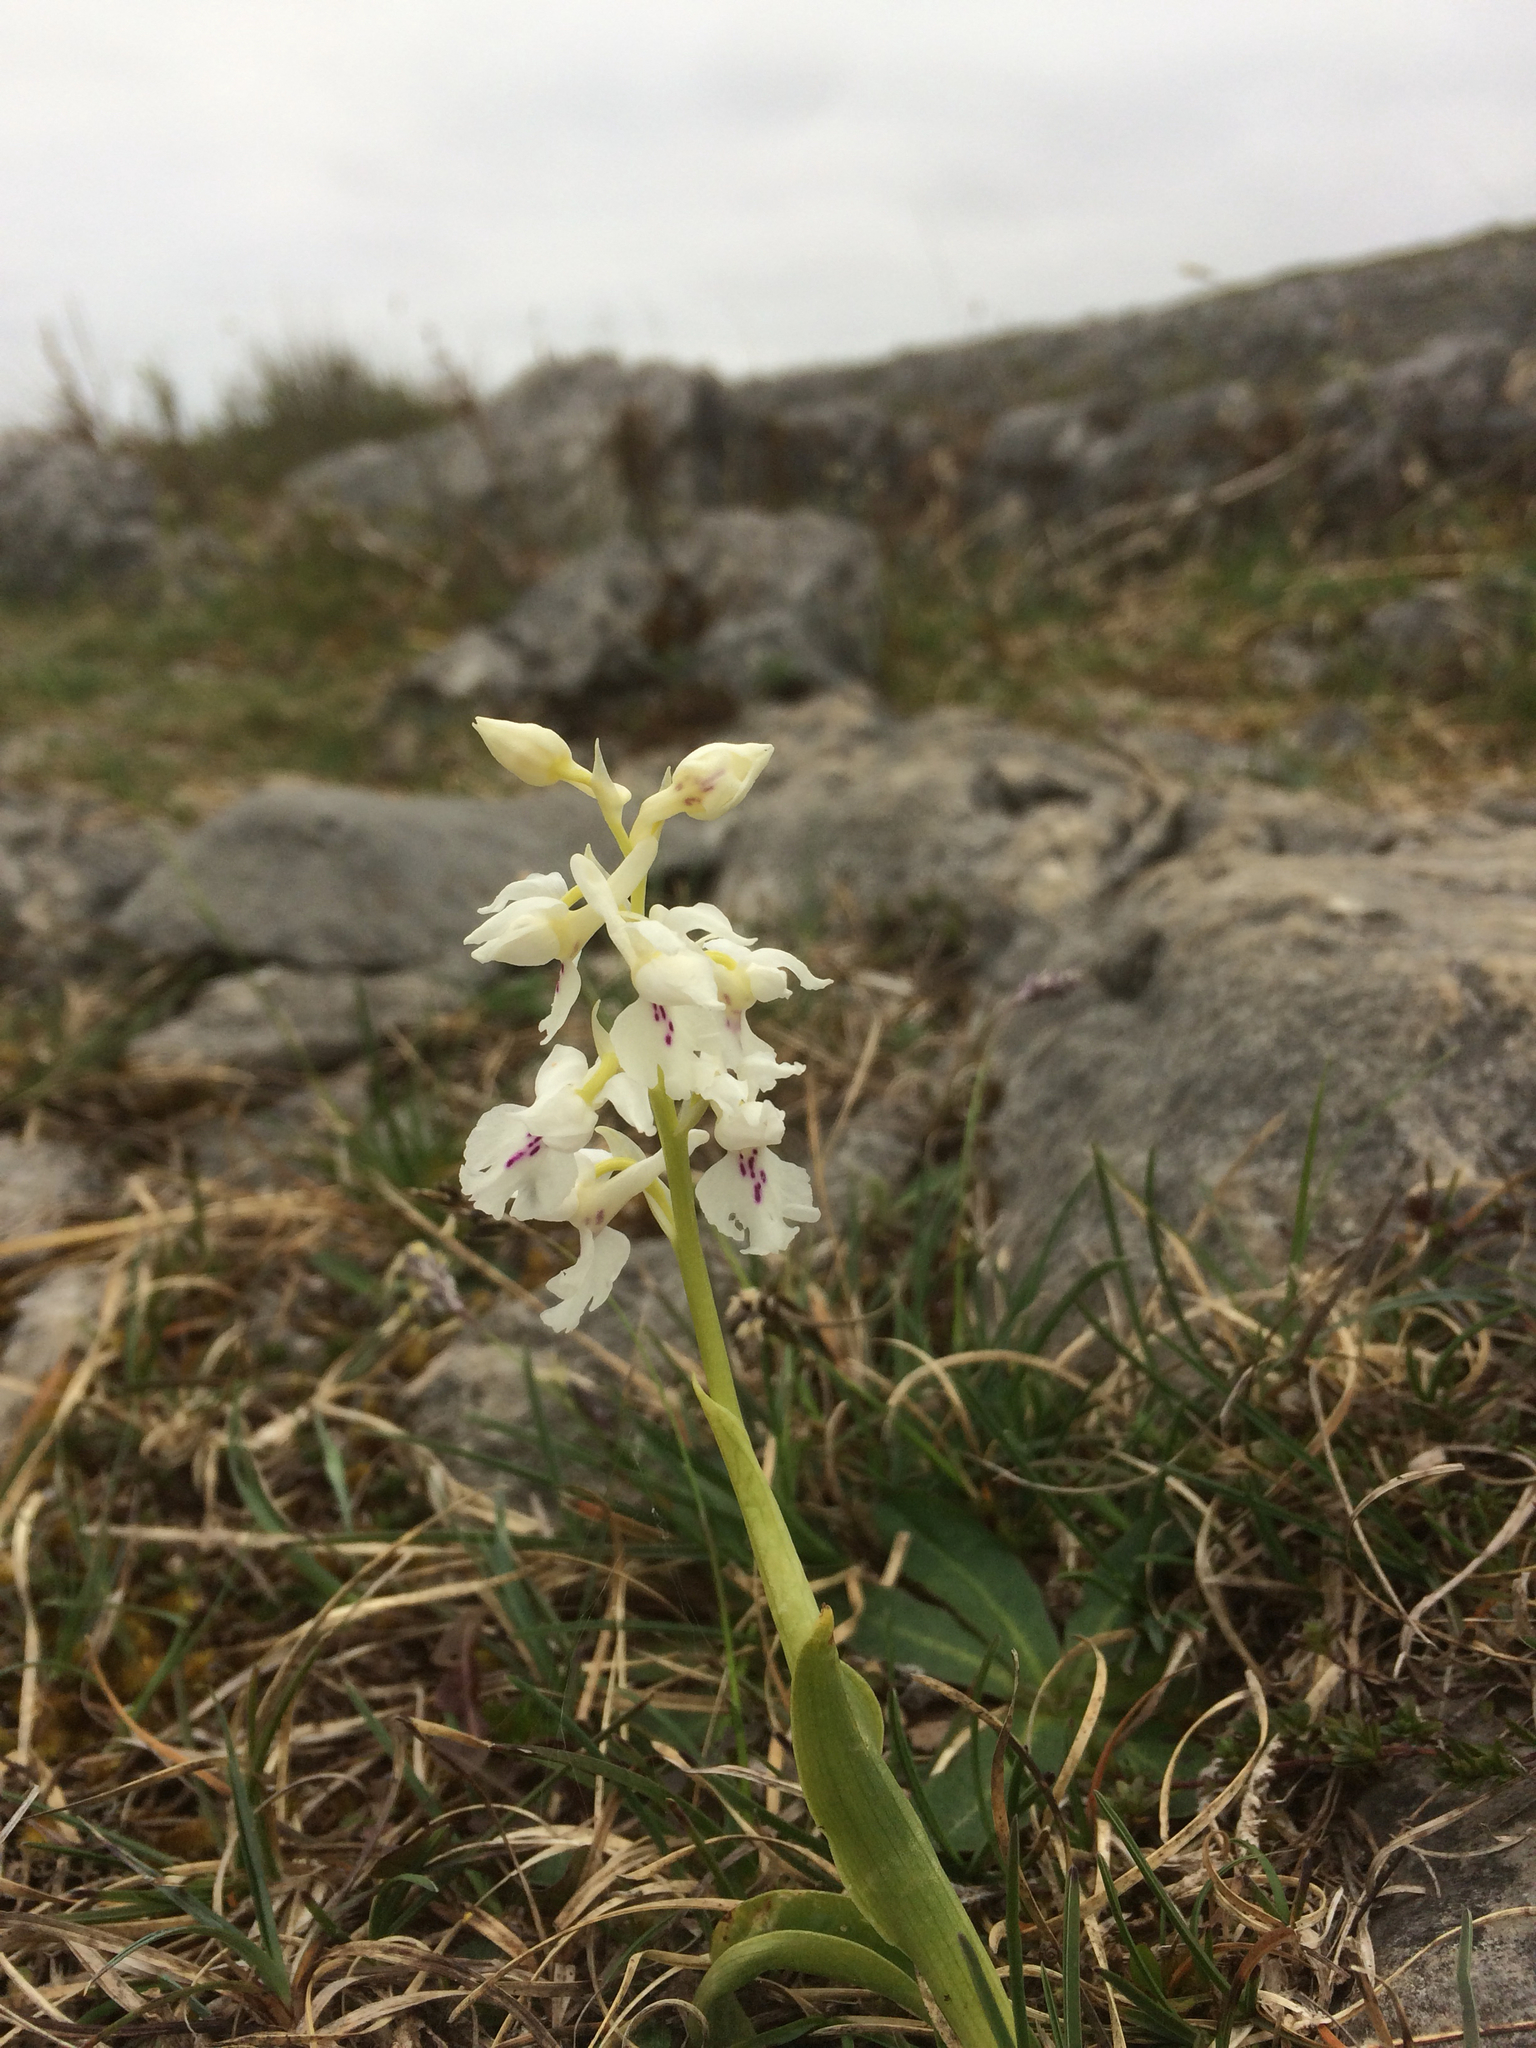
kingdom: Plantae
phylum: Tracheophyta
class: Liliopsida
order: Asparagales
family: Orchidaceae
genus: Orchis
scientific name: Orchis mascula
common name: Early-purple orchid
